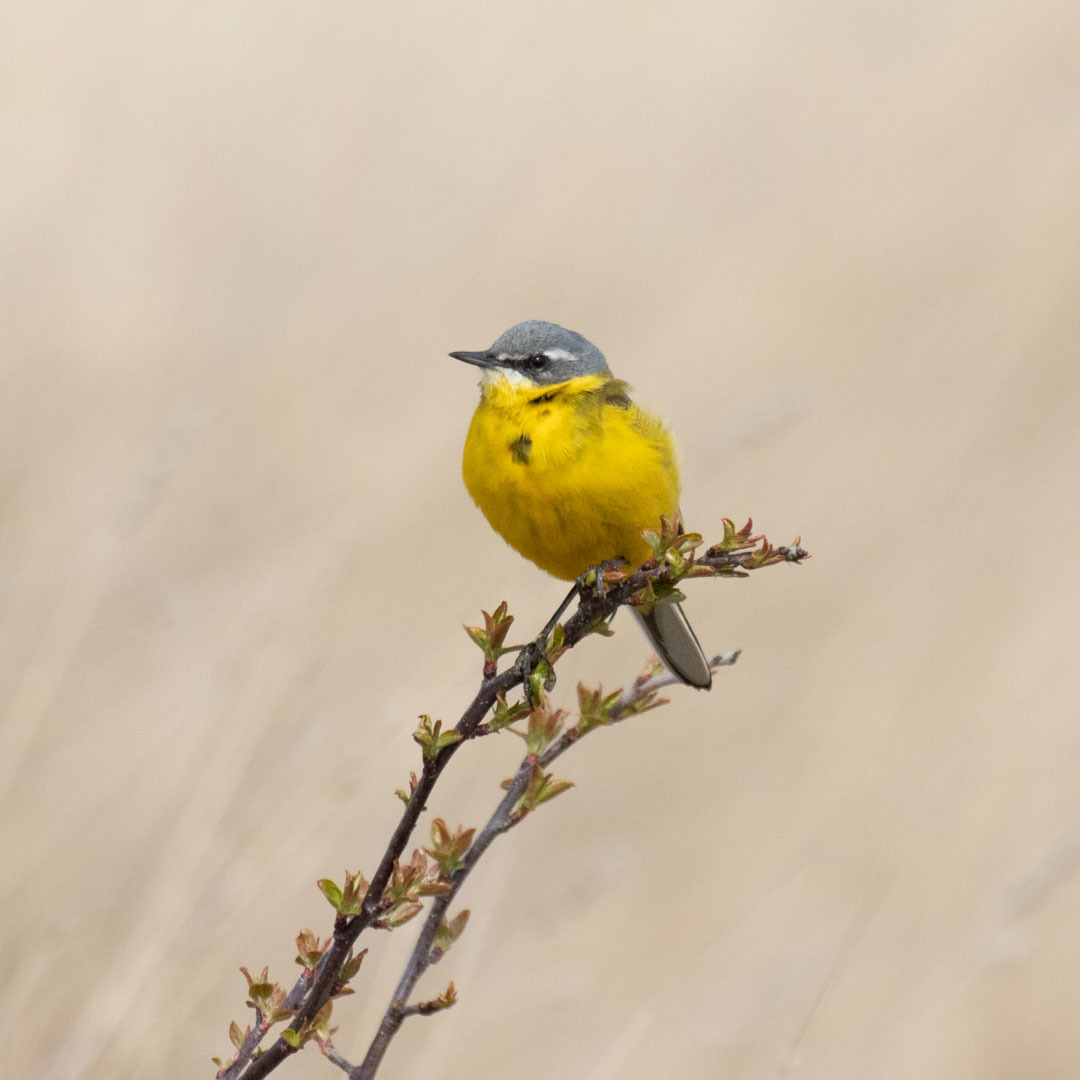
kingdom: Animalia
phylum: Chordata
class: Aves
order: Passeriformes
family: Motacillidae
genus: Motacilla
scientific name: Motacilla flava
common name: Western yellow wagtail
